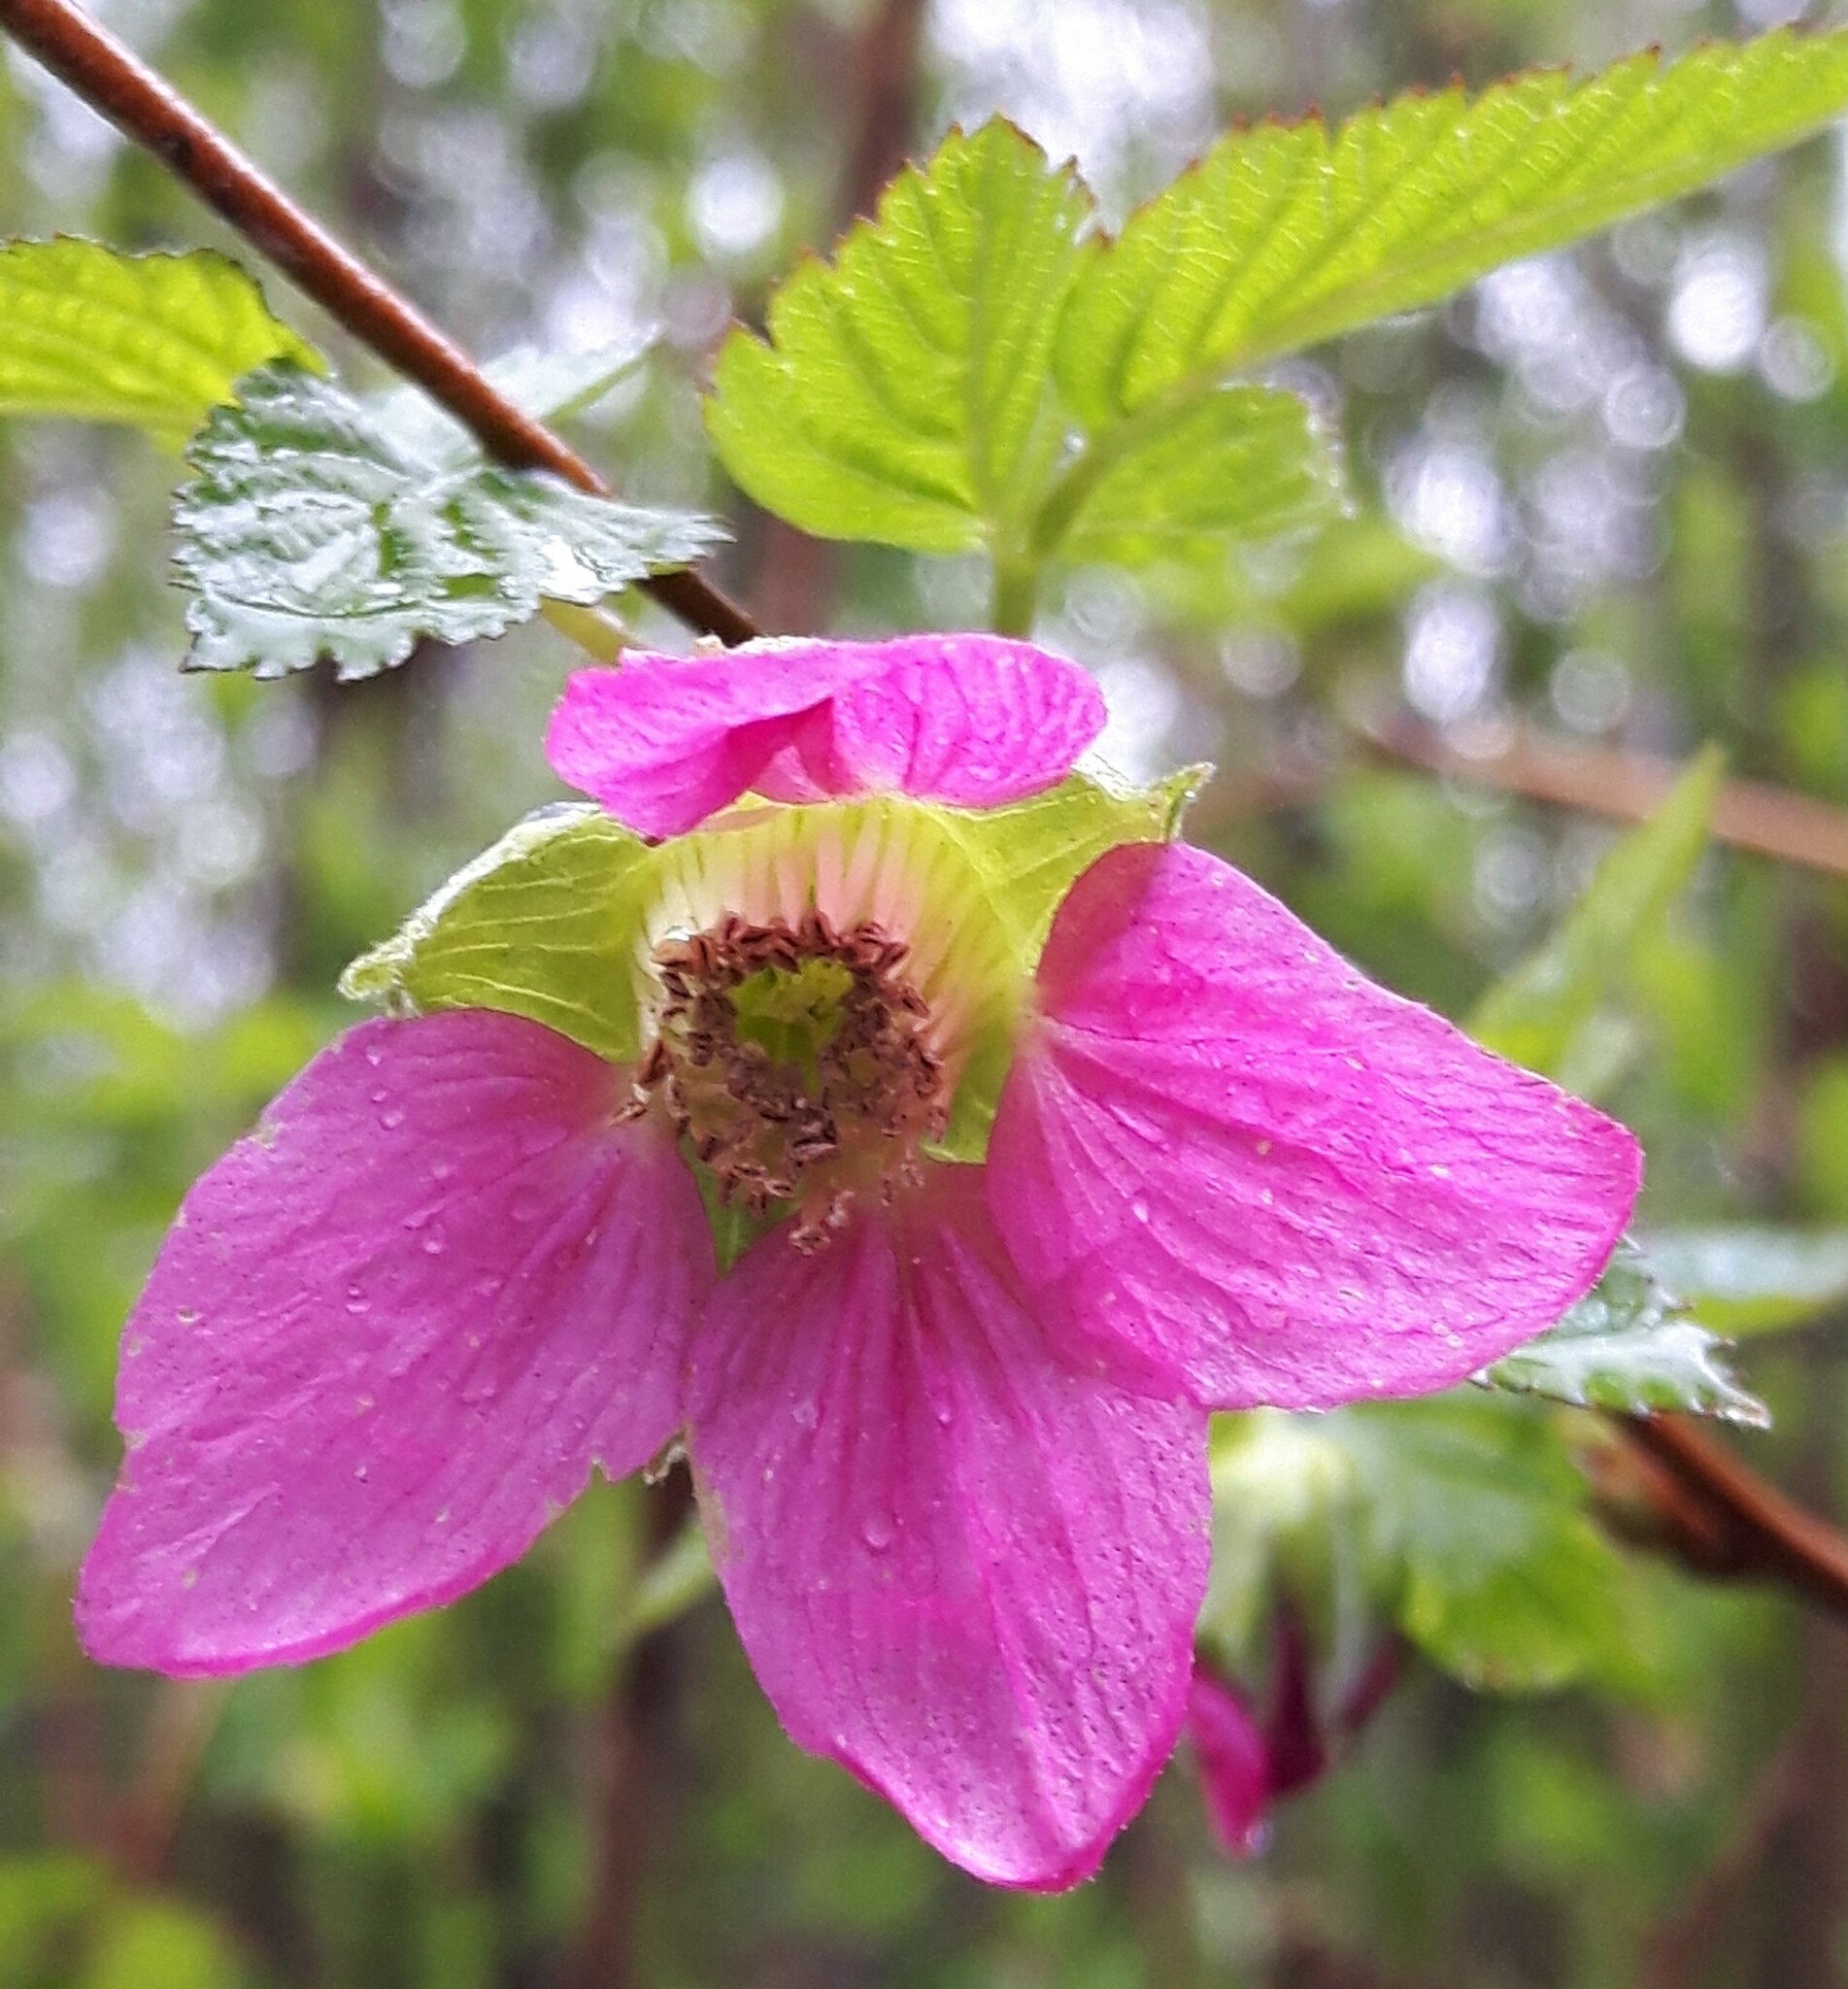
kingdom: Plantae
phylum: Tracheophyta
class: Magnoliopsida
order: Rosales
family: Rosaceae
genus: Rubus
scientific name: Rubus spectabilis
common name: Salmonberry
